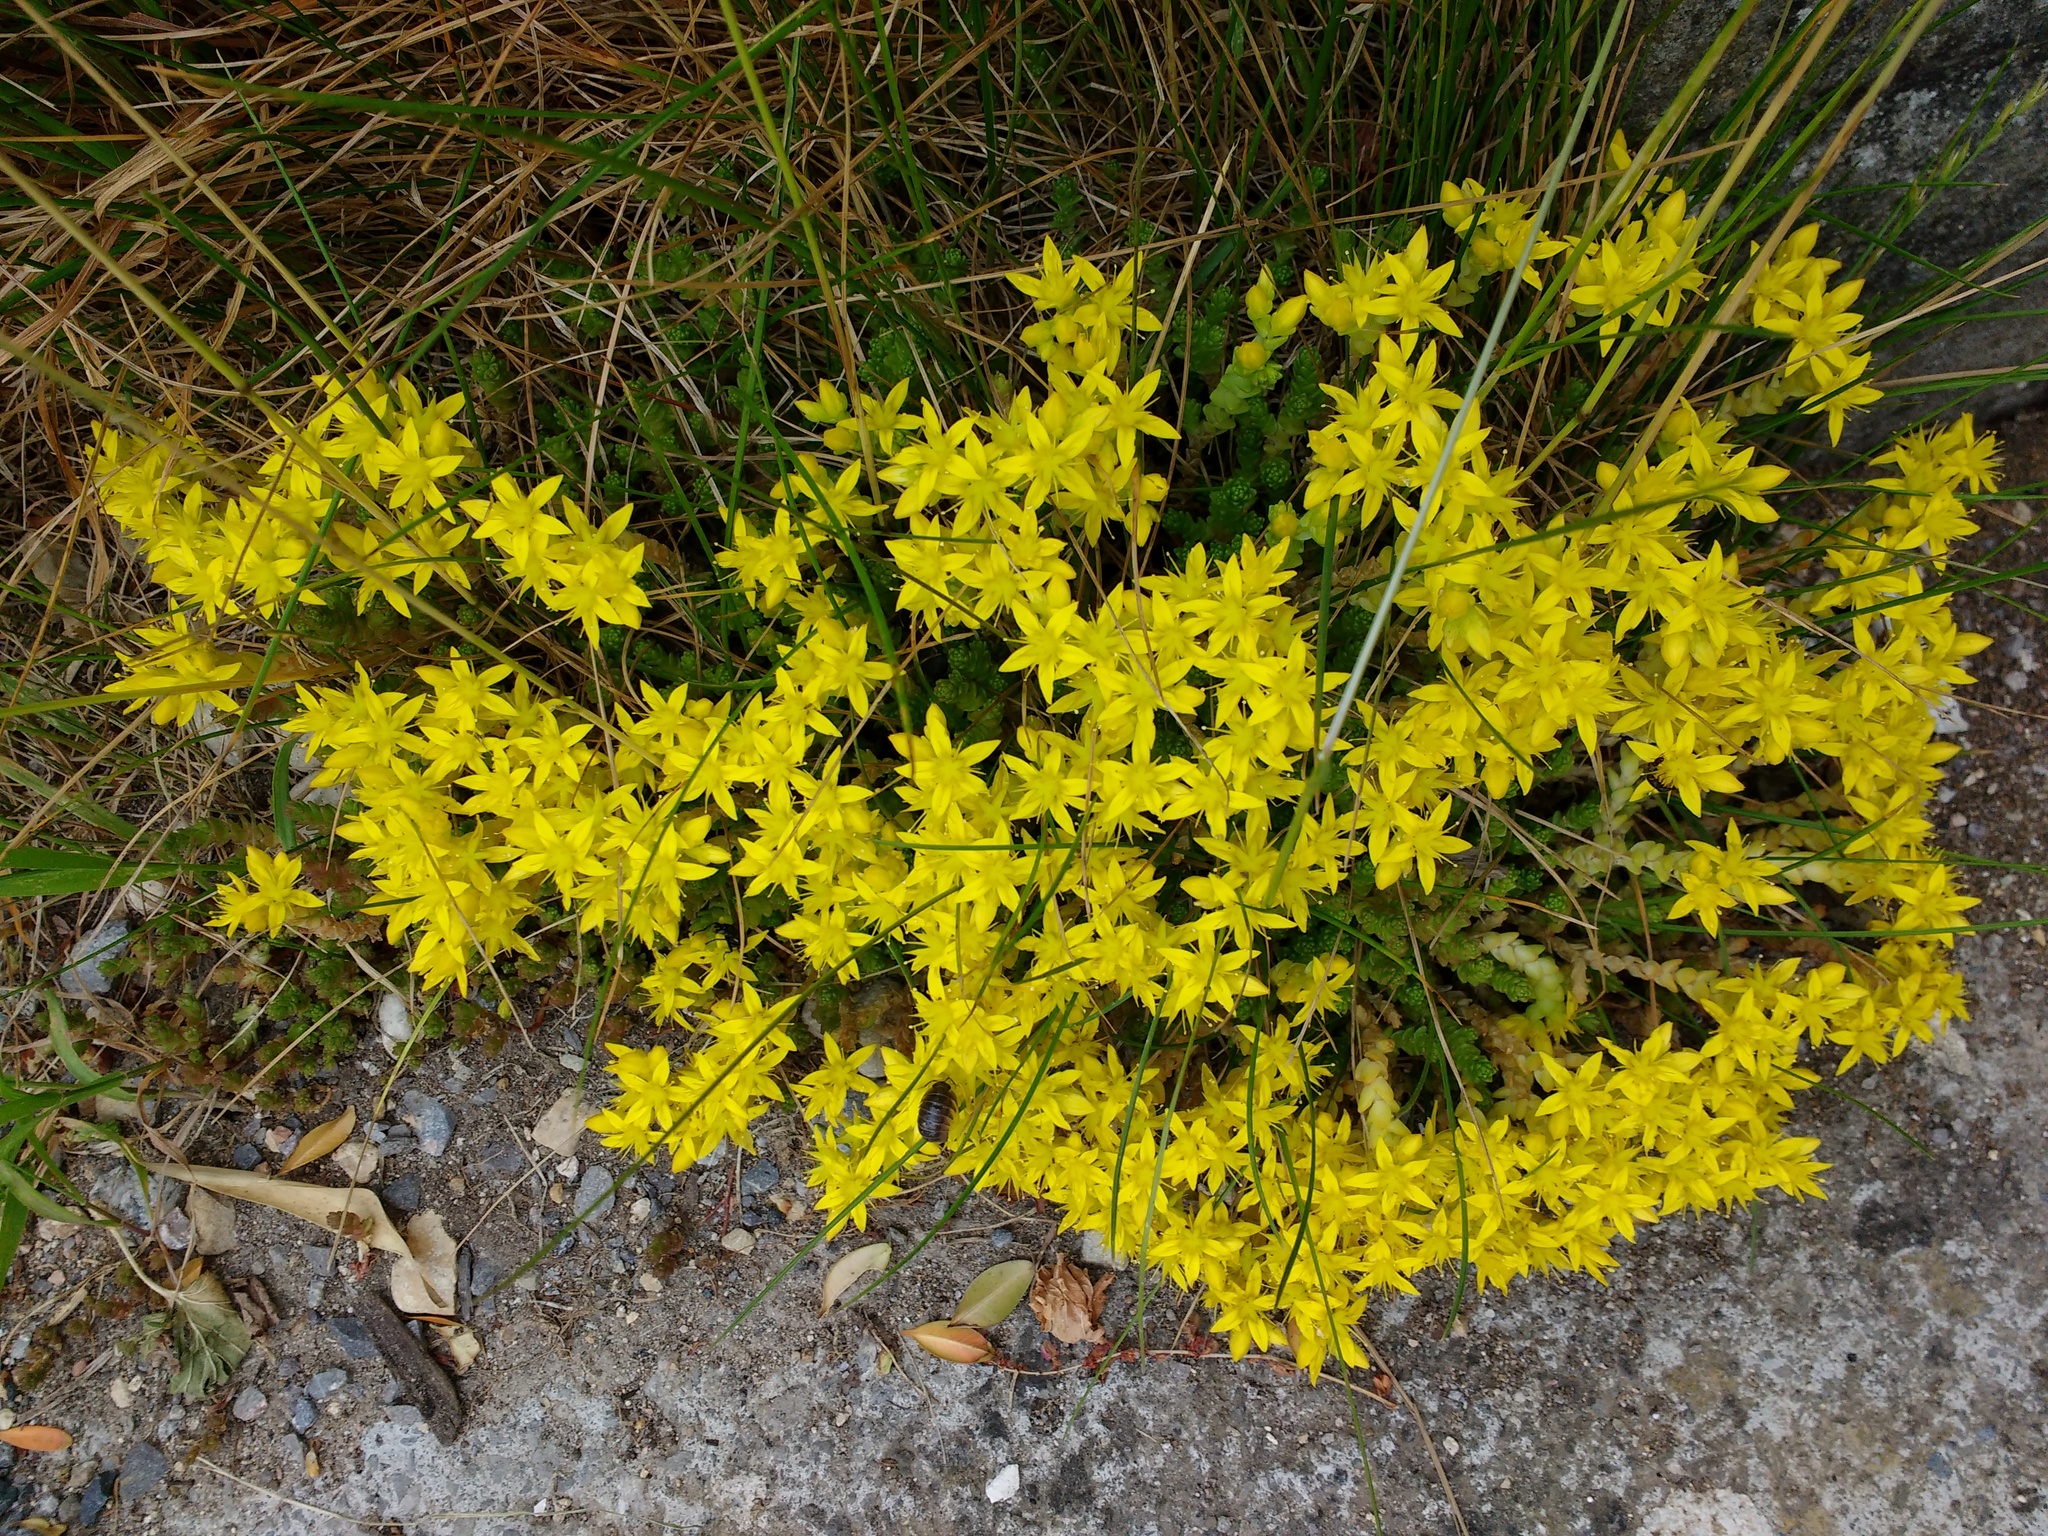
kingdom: Plantae
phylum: Tracheophyta
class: Magnoliopsida
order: Saxifragales
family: Crassulaceae
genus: Sedum
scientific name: Sedum acre
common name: Biting stonecrop
